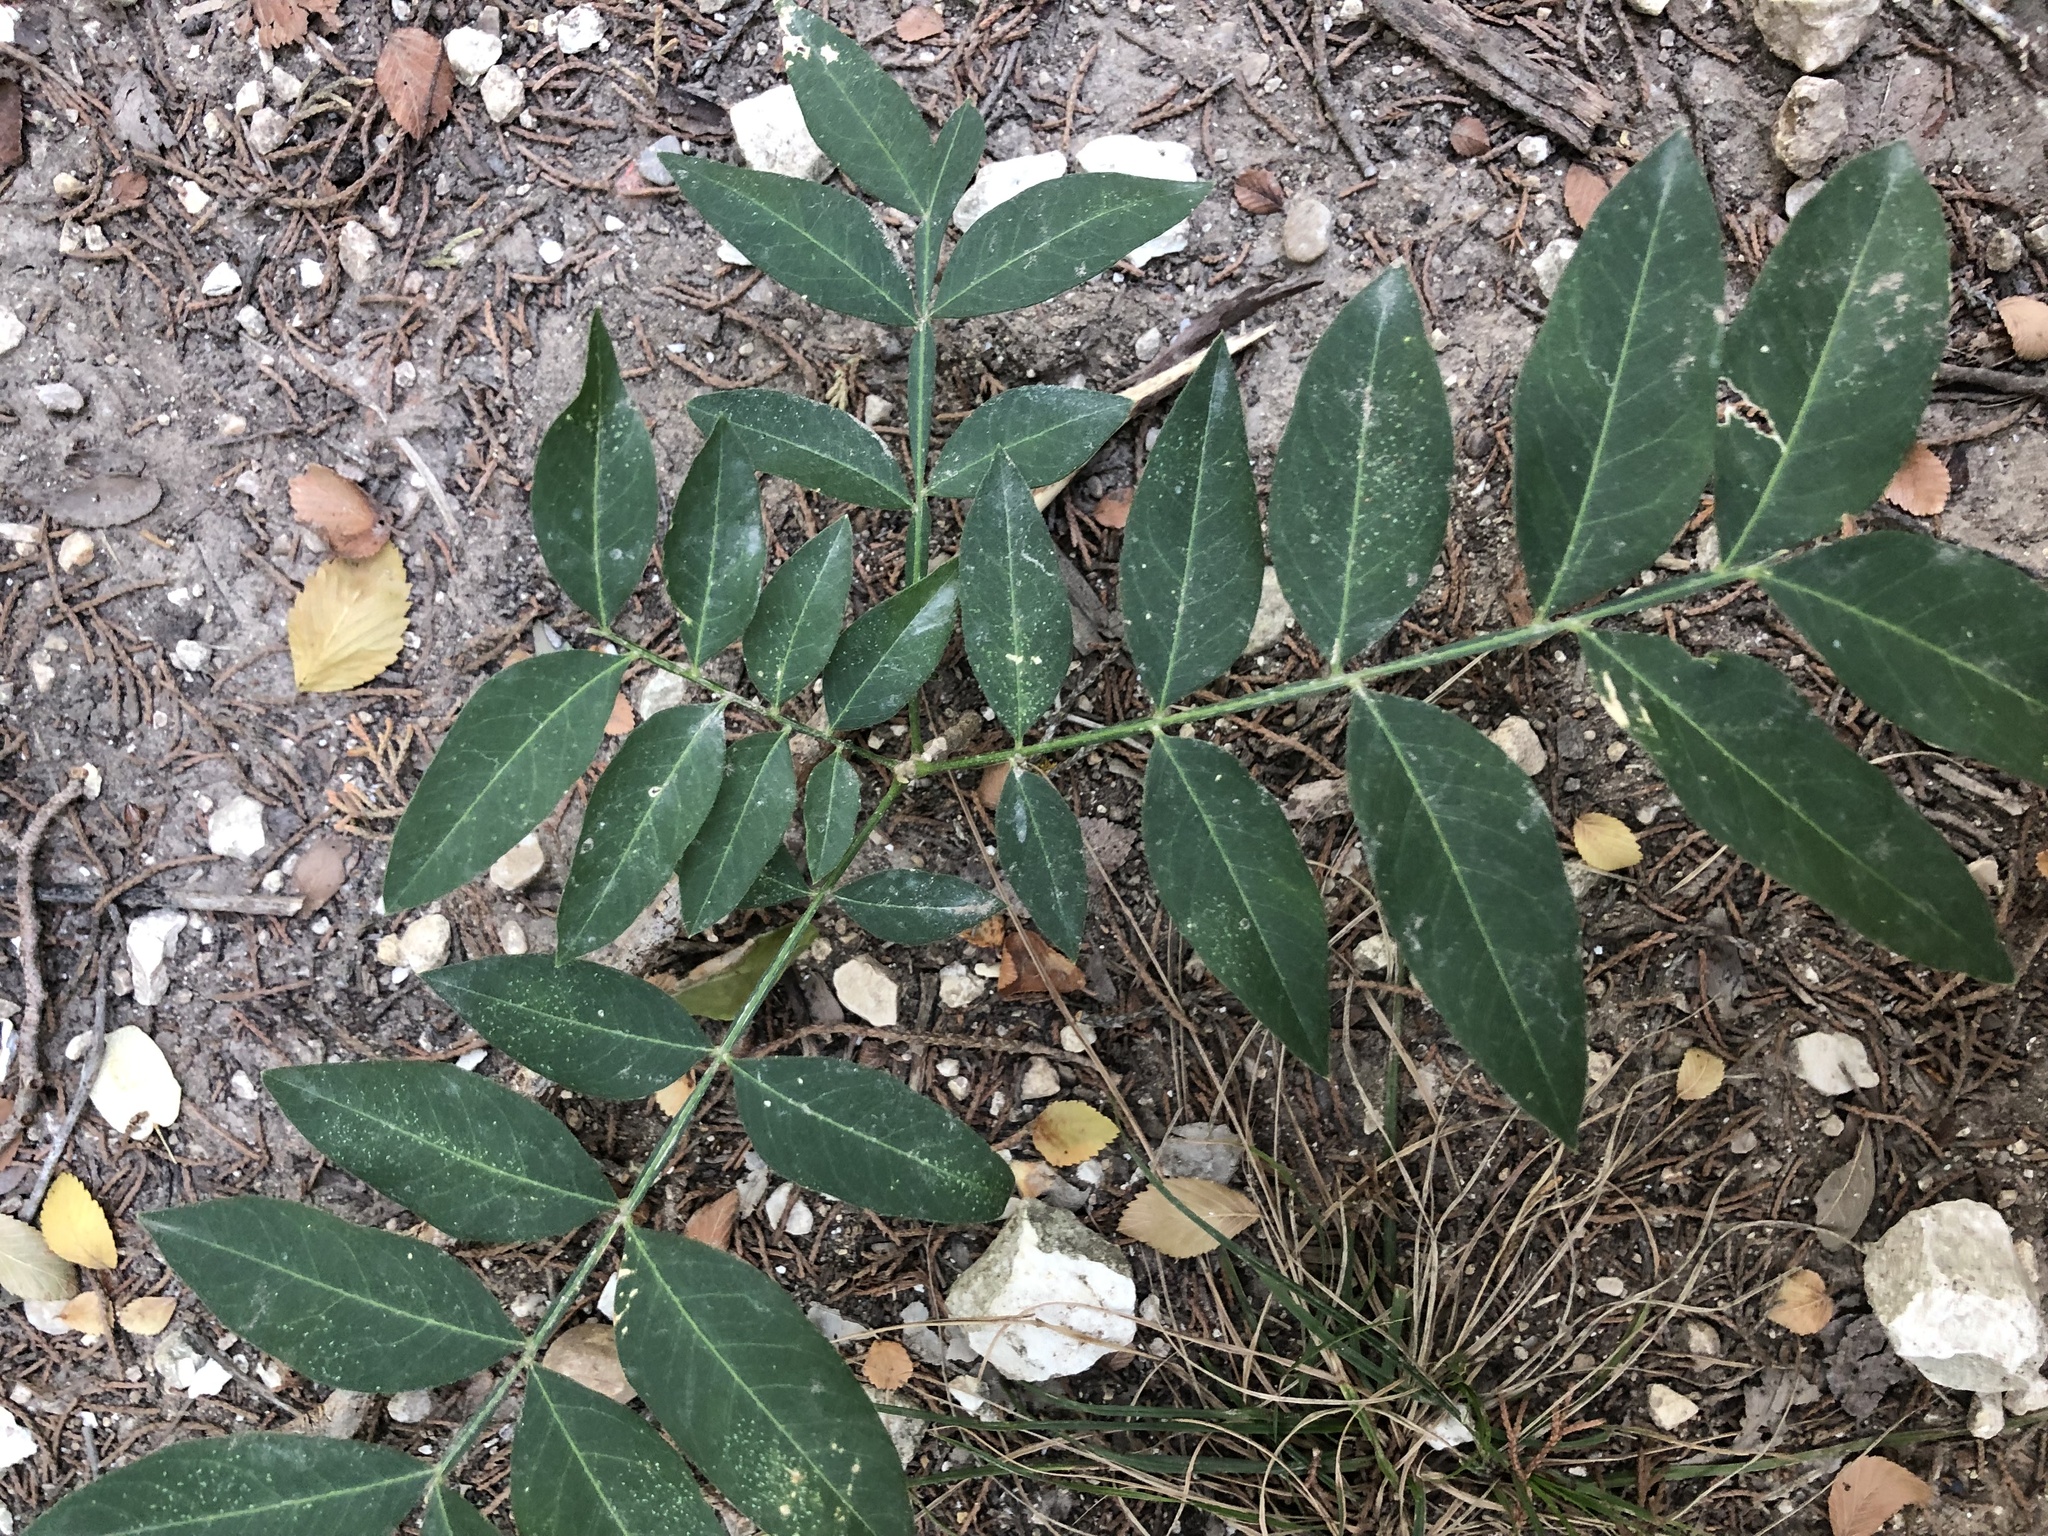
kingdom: Plantae
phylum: Tracheophyta
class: Magnoliopsida
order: Sapindales
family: Sapindaceae
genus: Sapindus
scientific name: Sapindus drummondii
